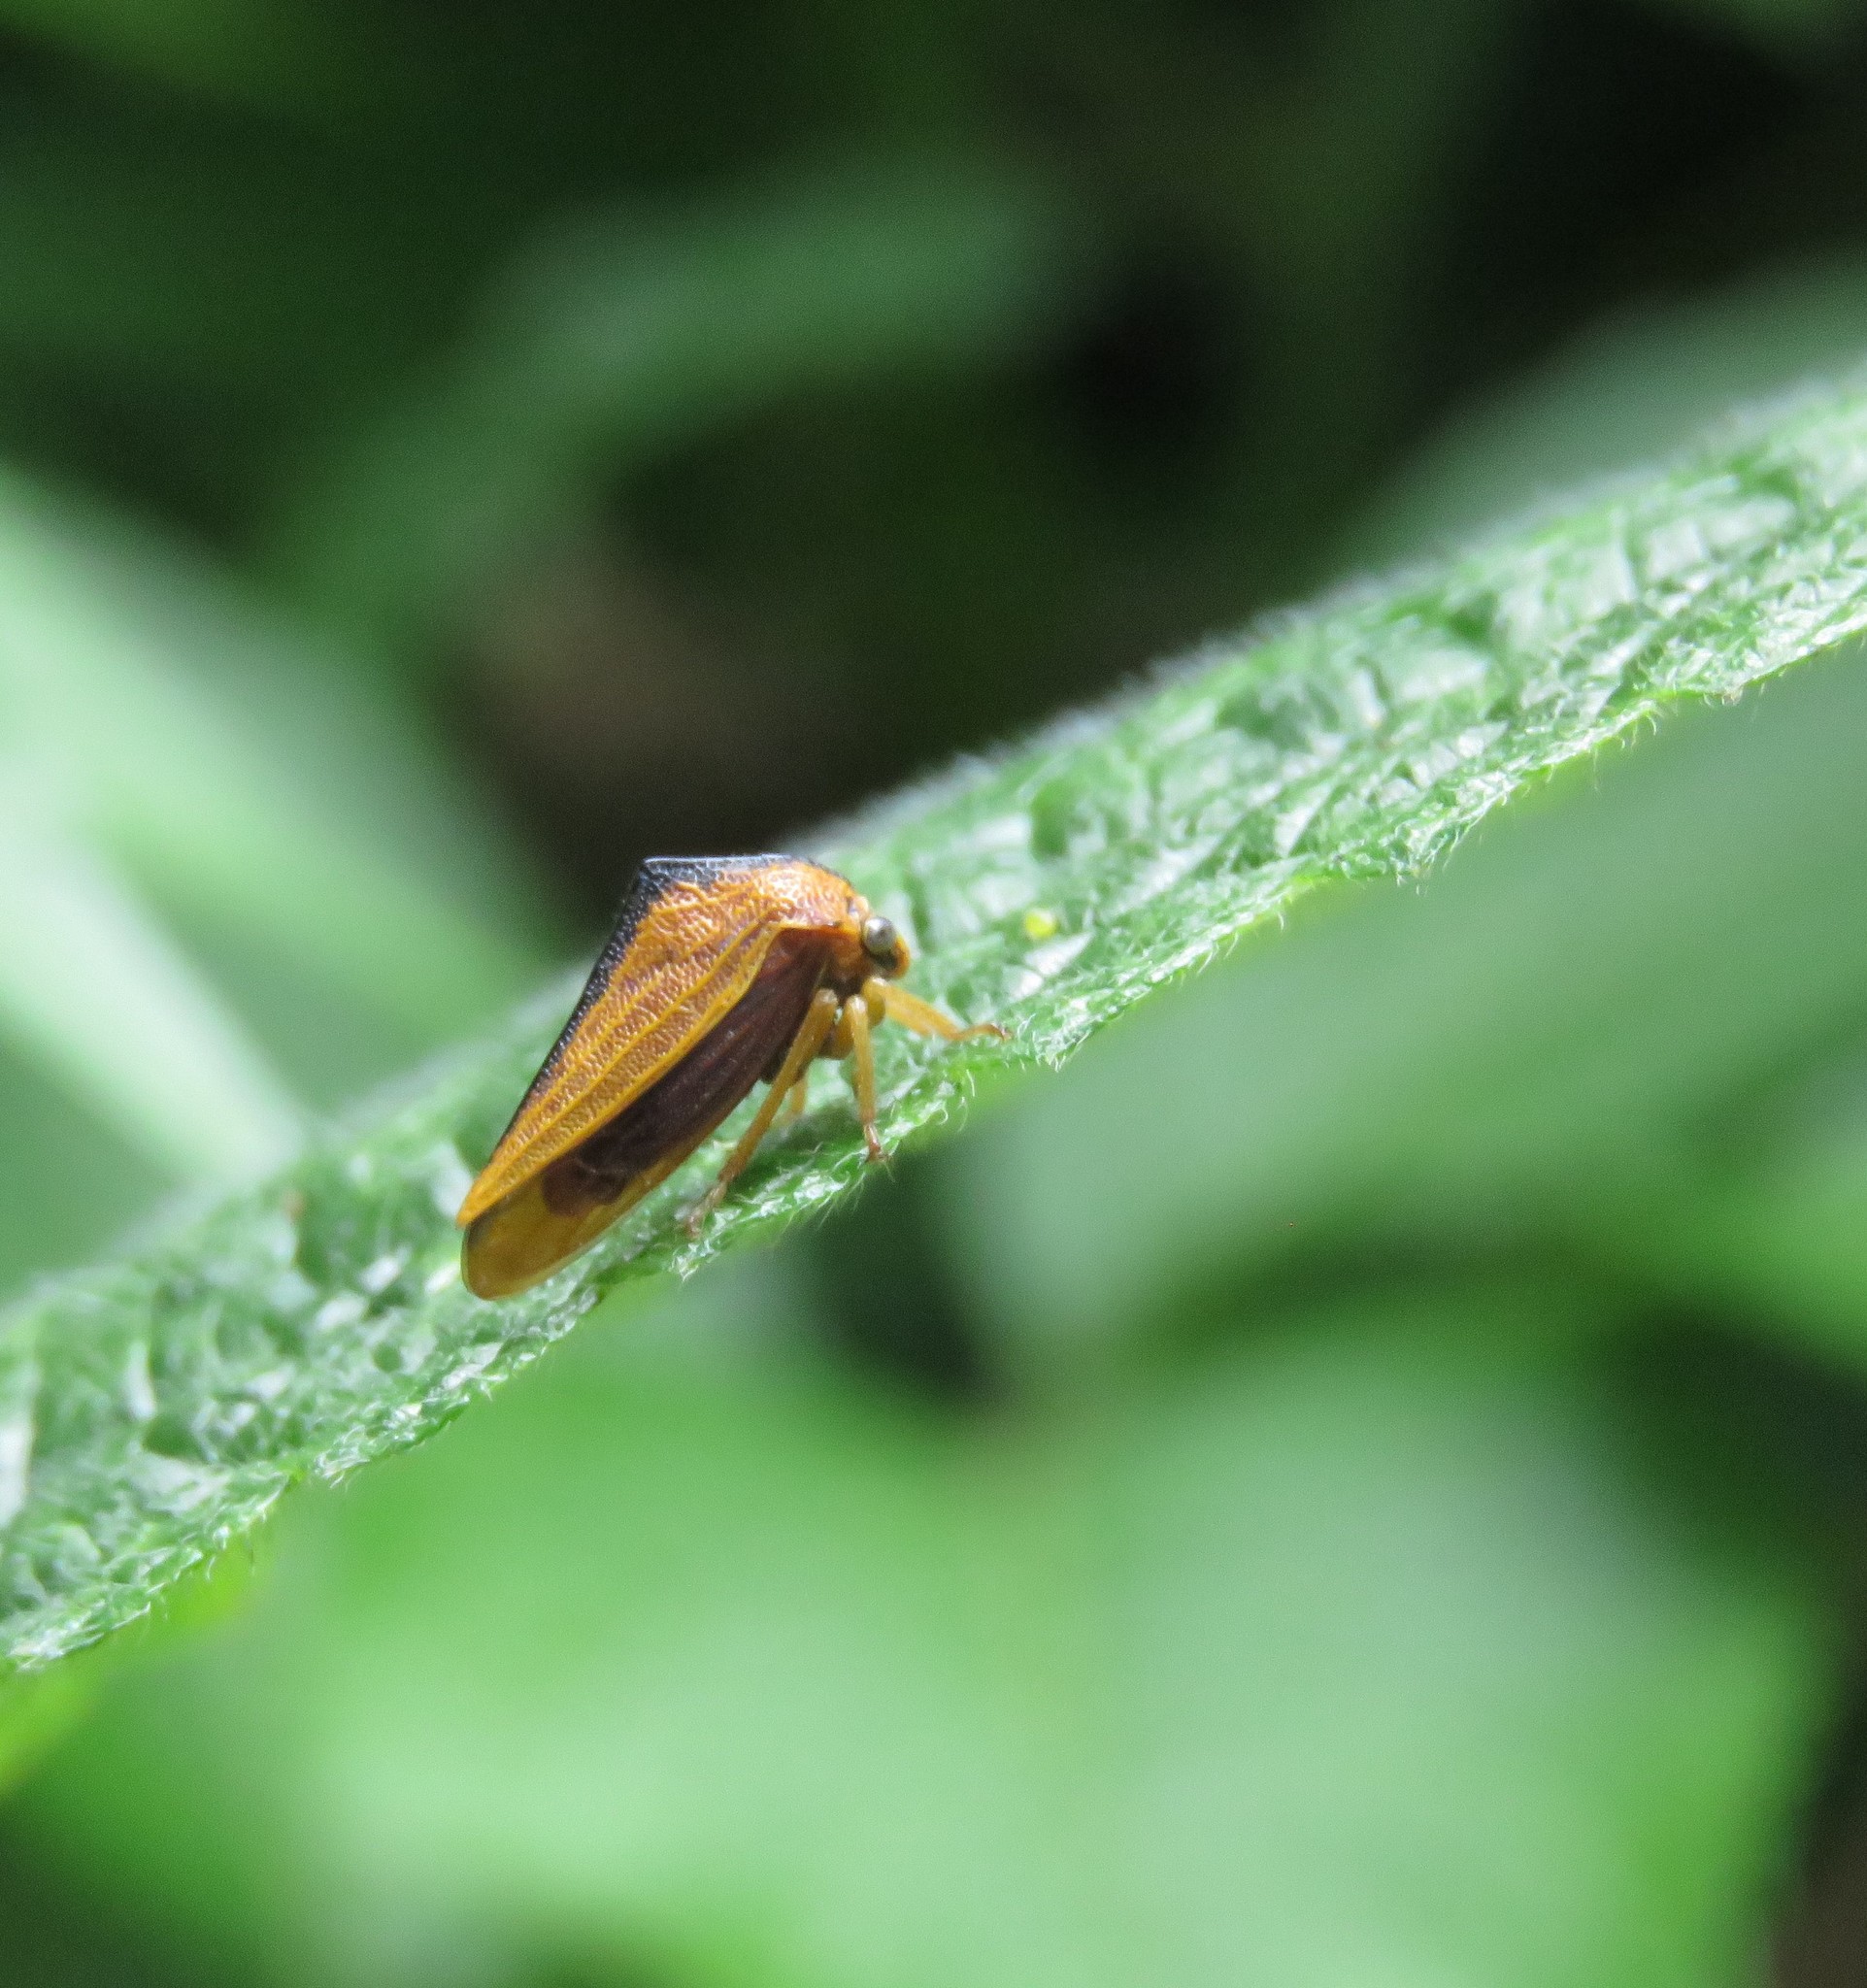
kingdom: Animalia
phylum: Arthropoda
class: Insecta
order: Hemiptera
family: Membracidae
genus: Ennya
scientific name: Ennya sobria
